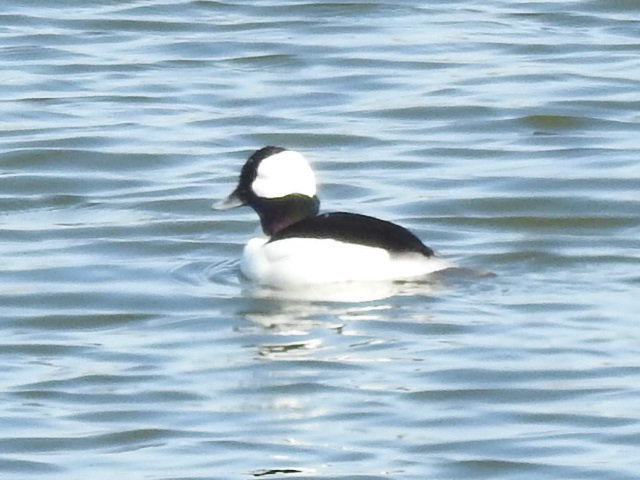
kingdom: Animalia
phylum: Chordata
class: Aves
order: Anseriformes
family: Anatidae
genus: Bucephala
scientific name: Bucephala albeola
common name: Bufflehead
